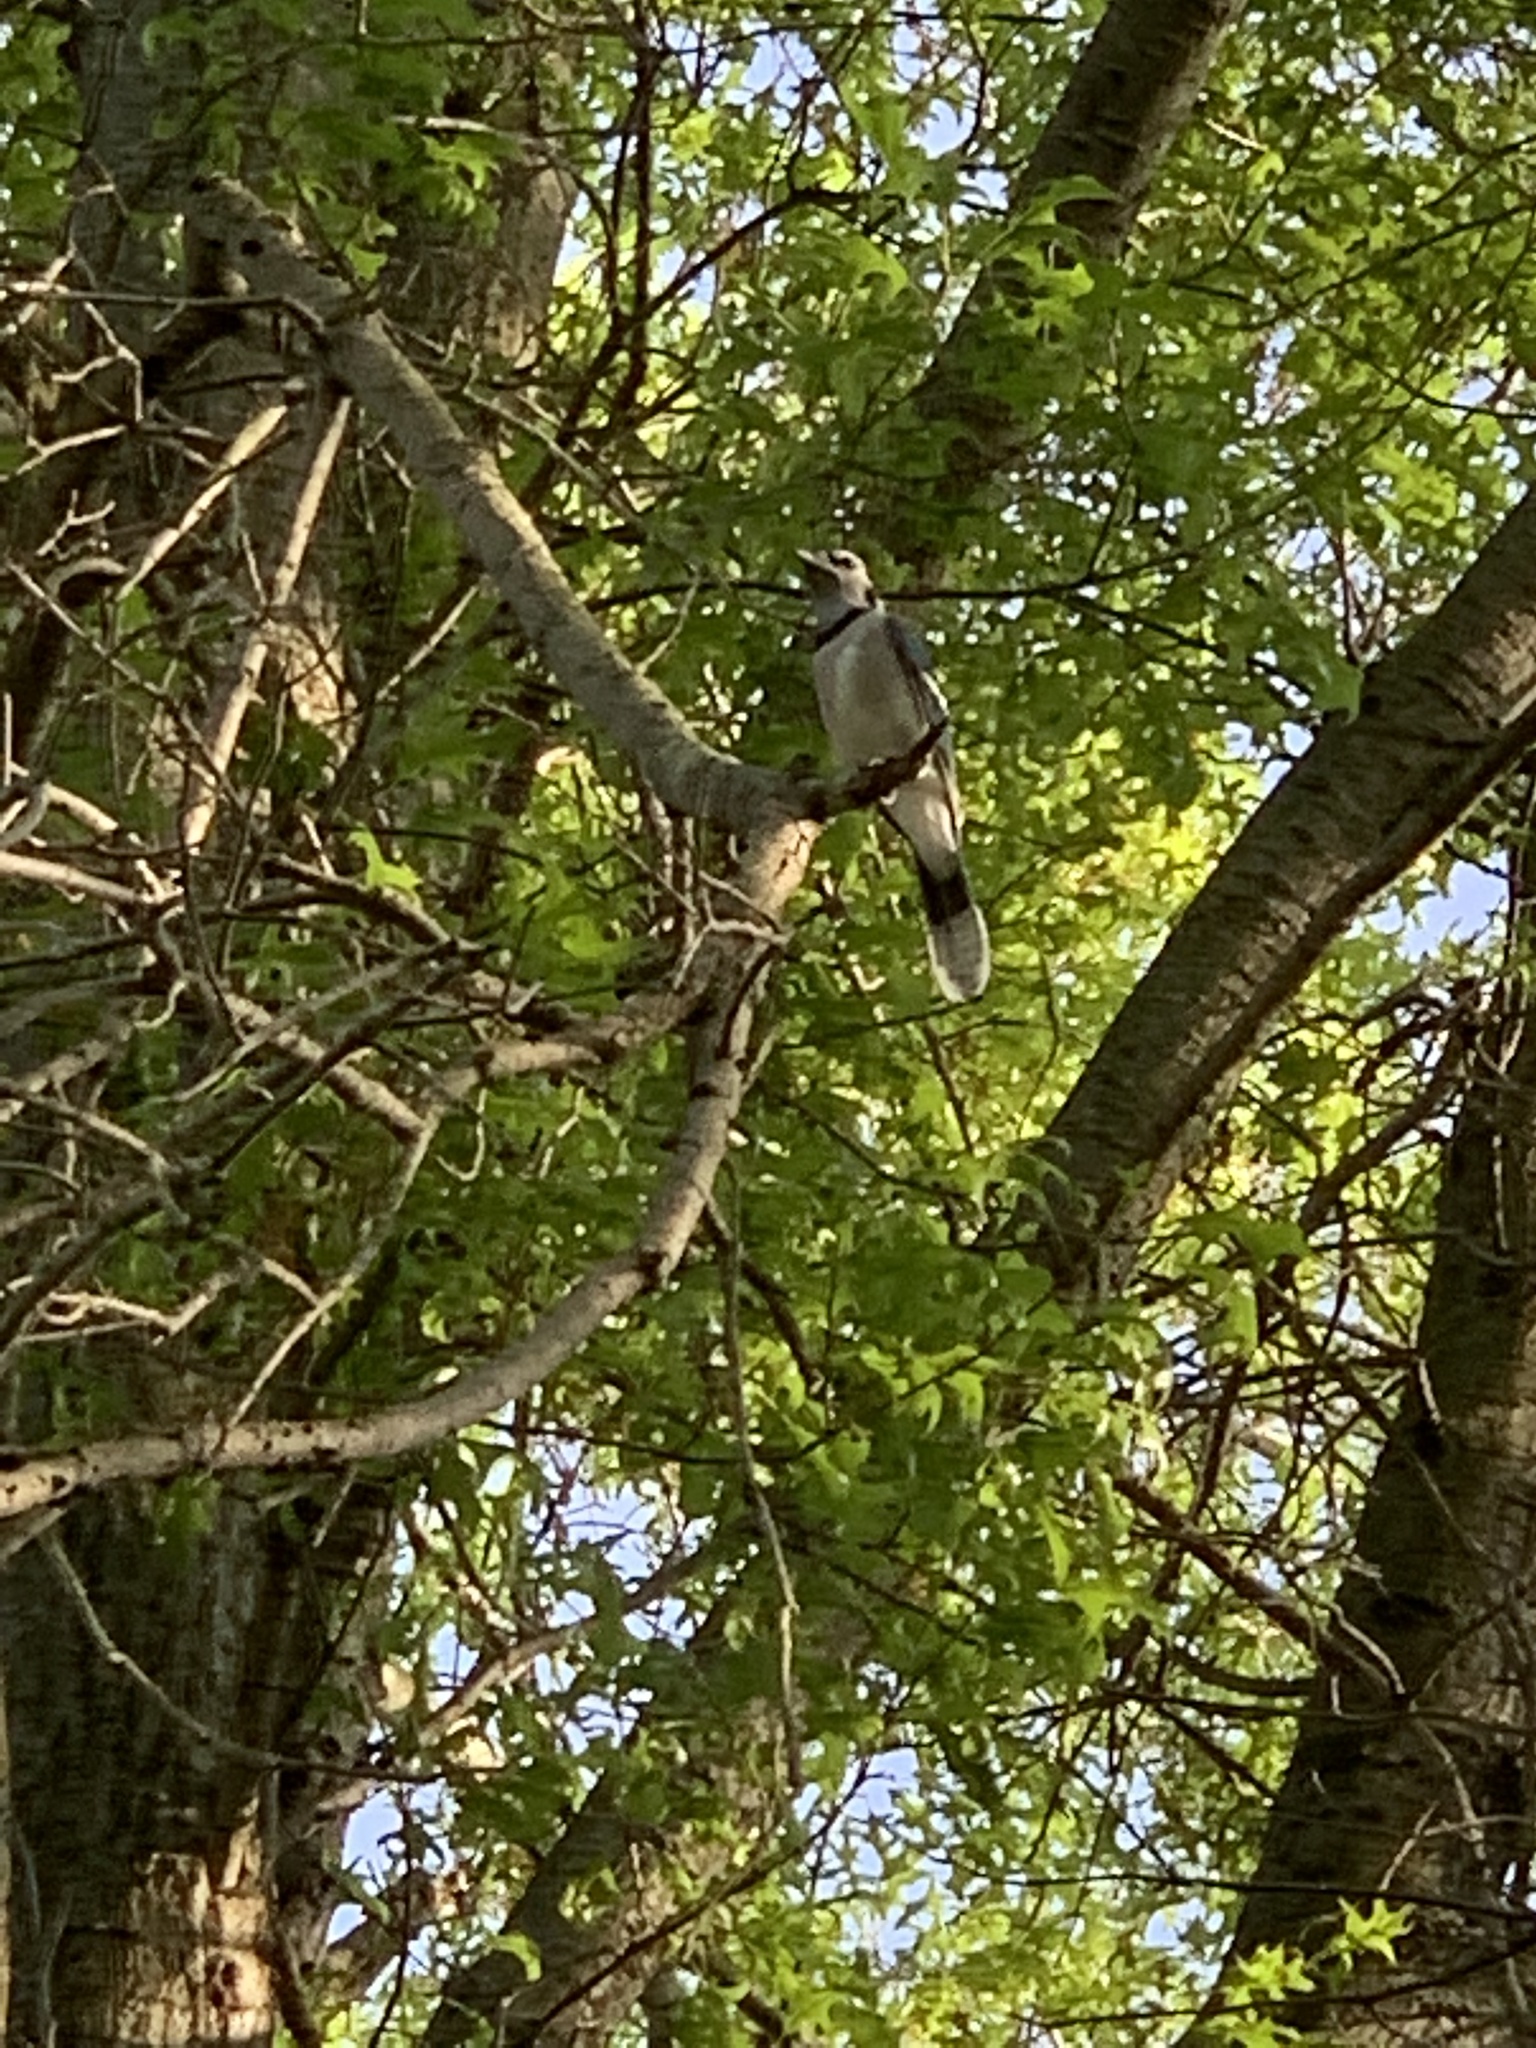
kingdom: Animalia
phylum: Chordata
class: Aves
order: Passeriformes
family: Corvidae
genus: Cyanocitta
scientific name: Cyanocitta cristata
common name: Blue jay
